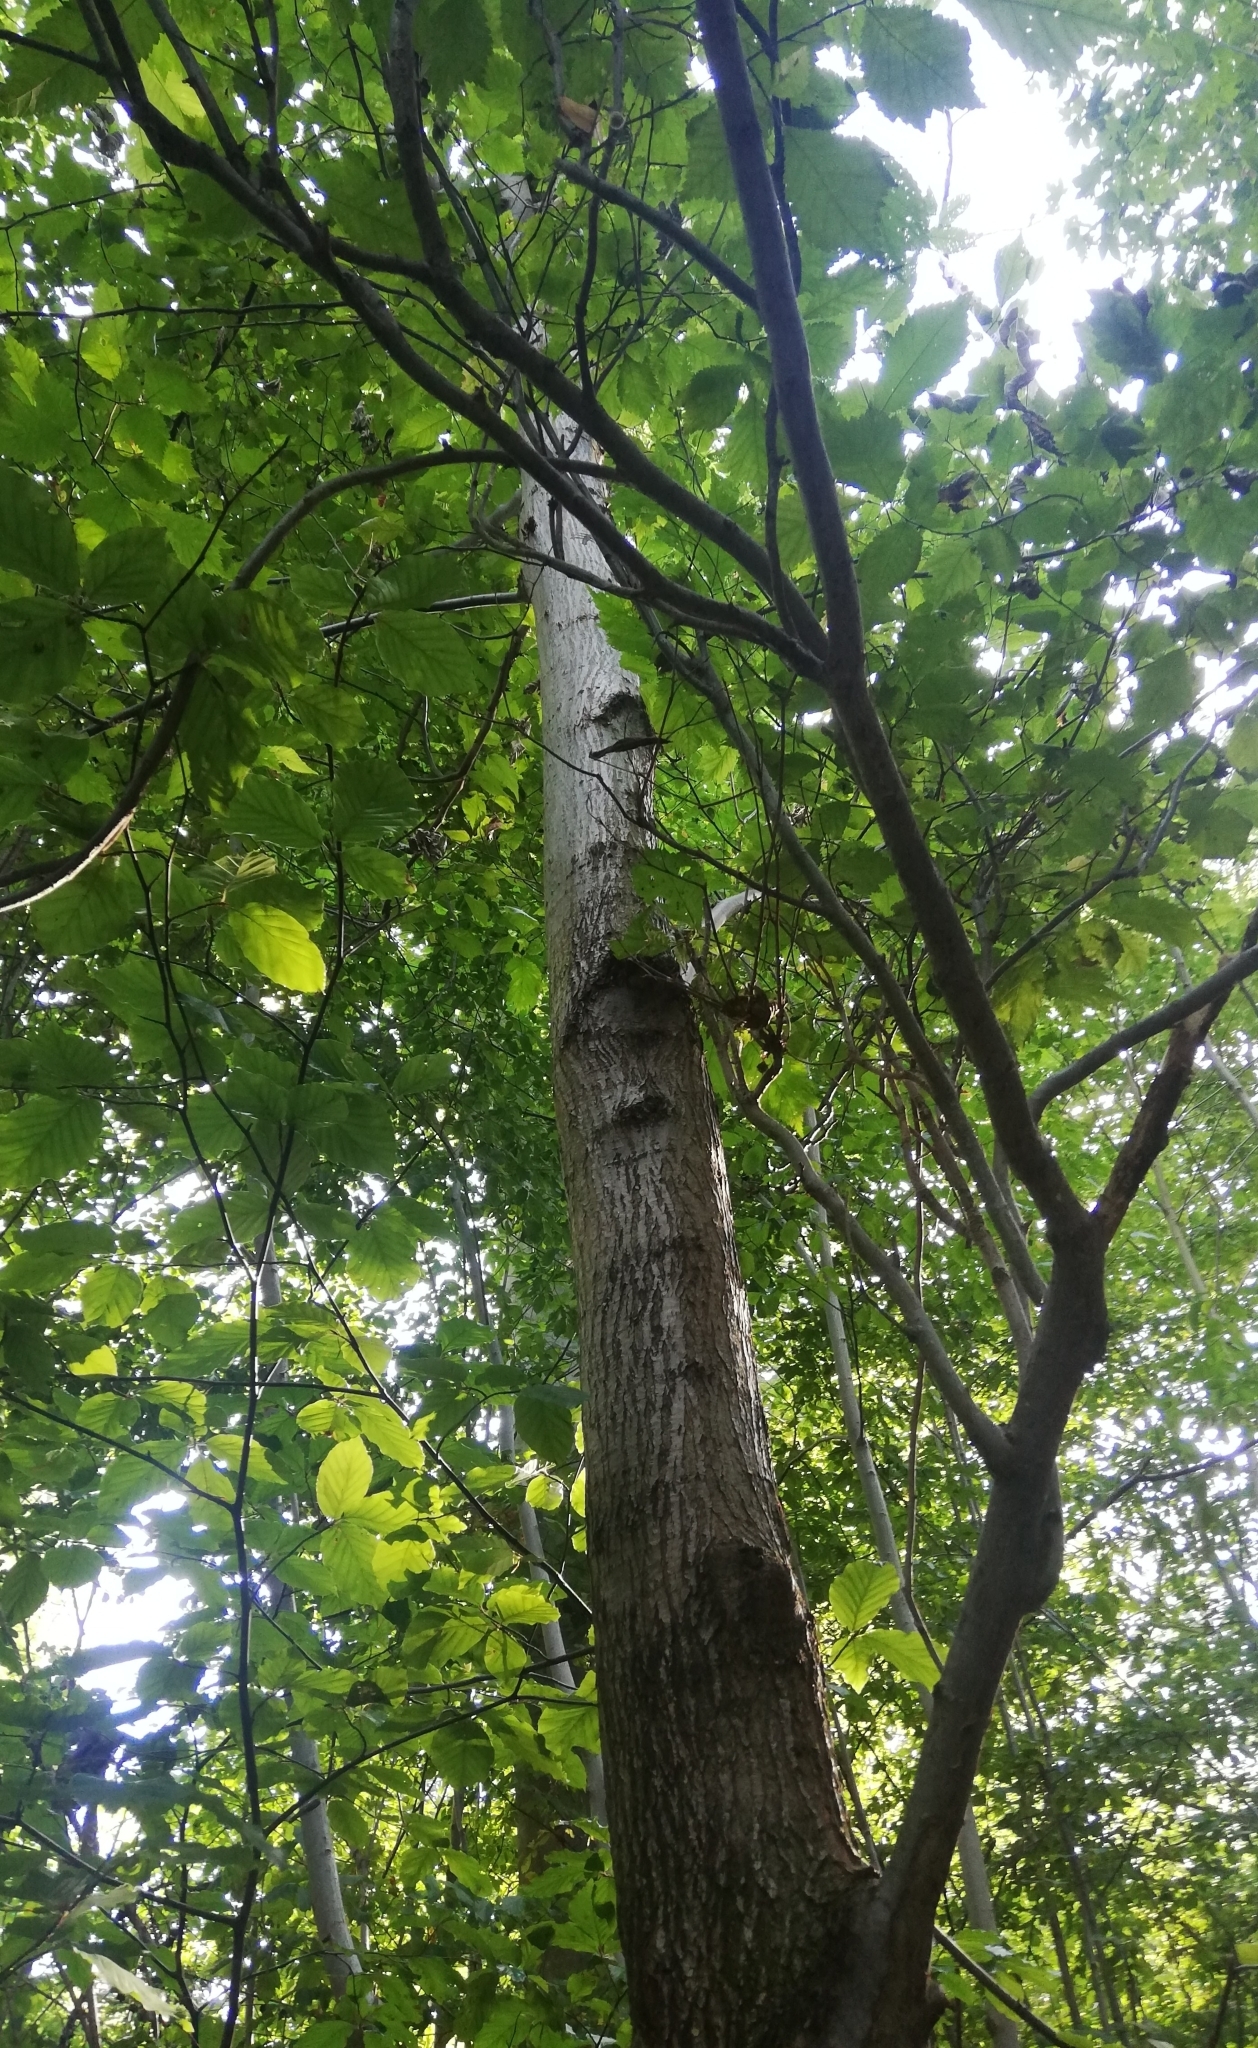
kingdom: Plantae
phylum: Tracheophyta
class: Magnoliopsida
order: Rosales
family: Ulmaceae
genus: Ulmus
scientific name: Ulmus glabra
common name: Wych elm
